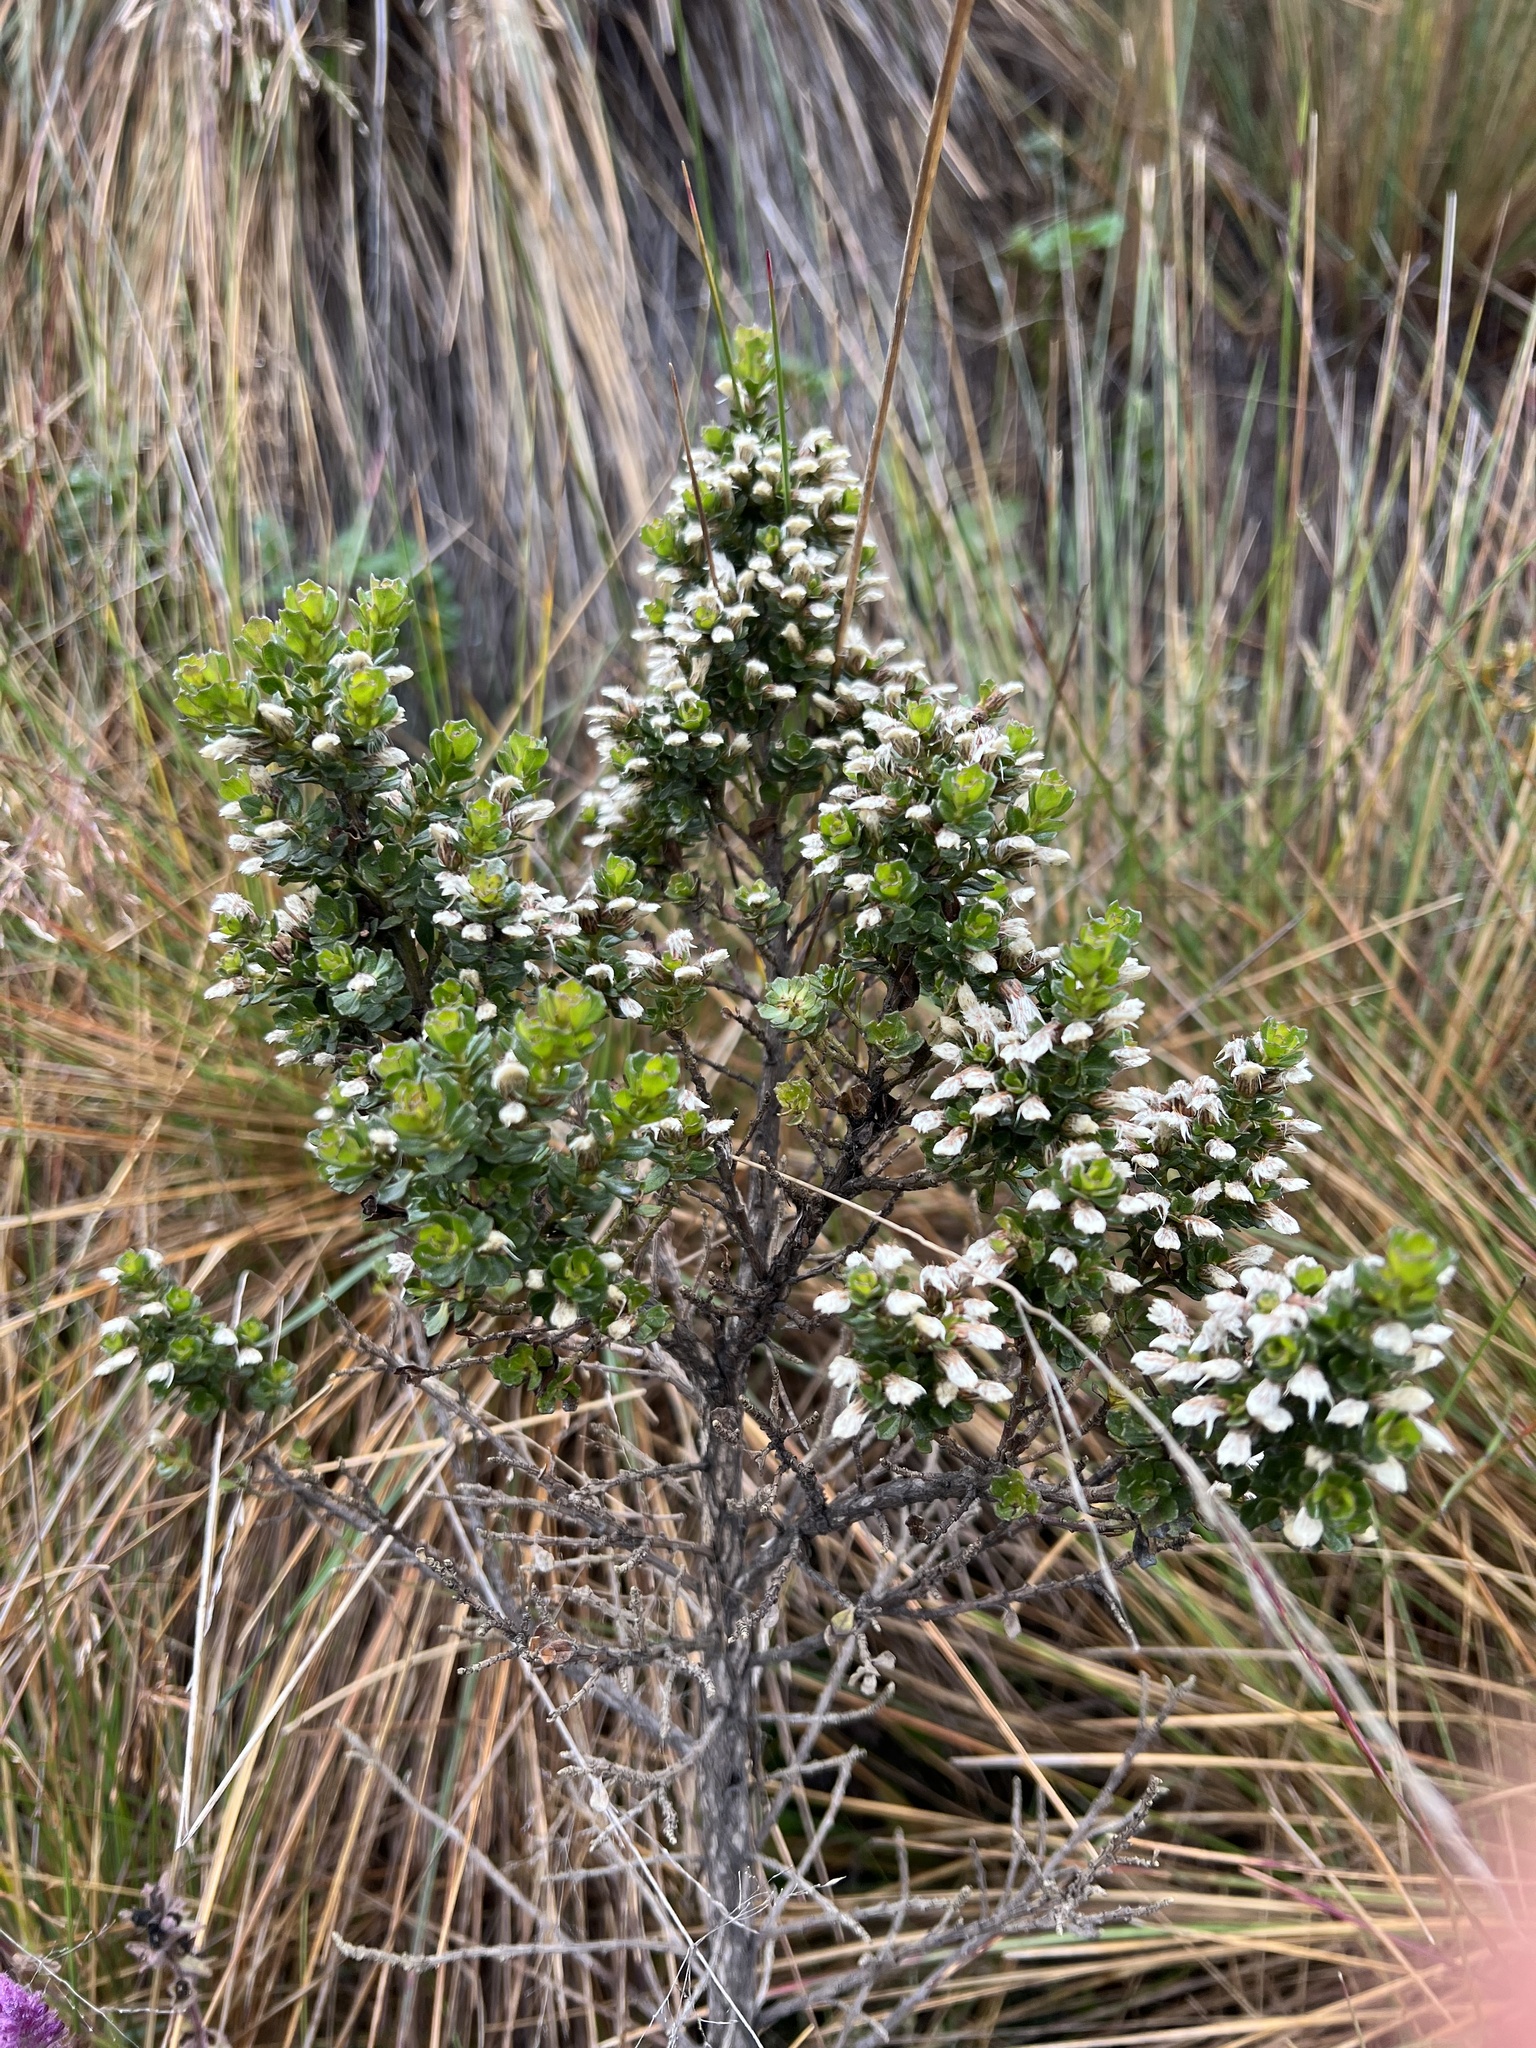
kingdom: Plantae
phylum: Tracheophyta
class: Magnoliopsida
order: Asterales
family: Asteraceae
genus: Baccharis
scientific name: Baccharis tricuneata
